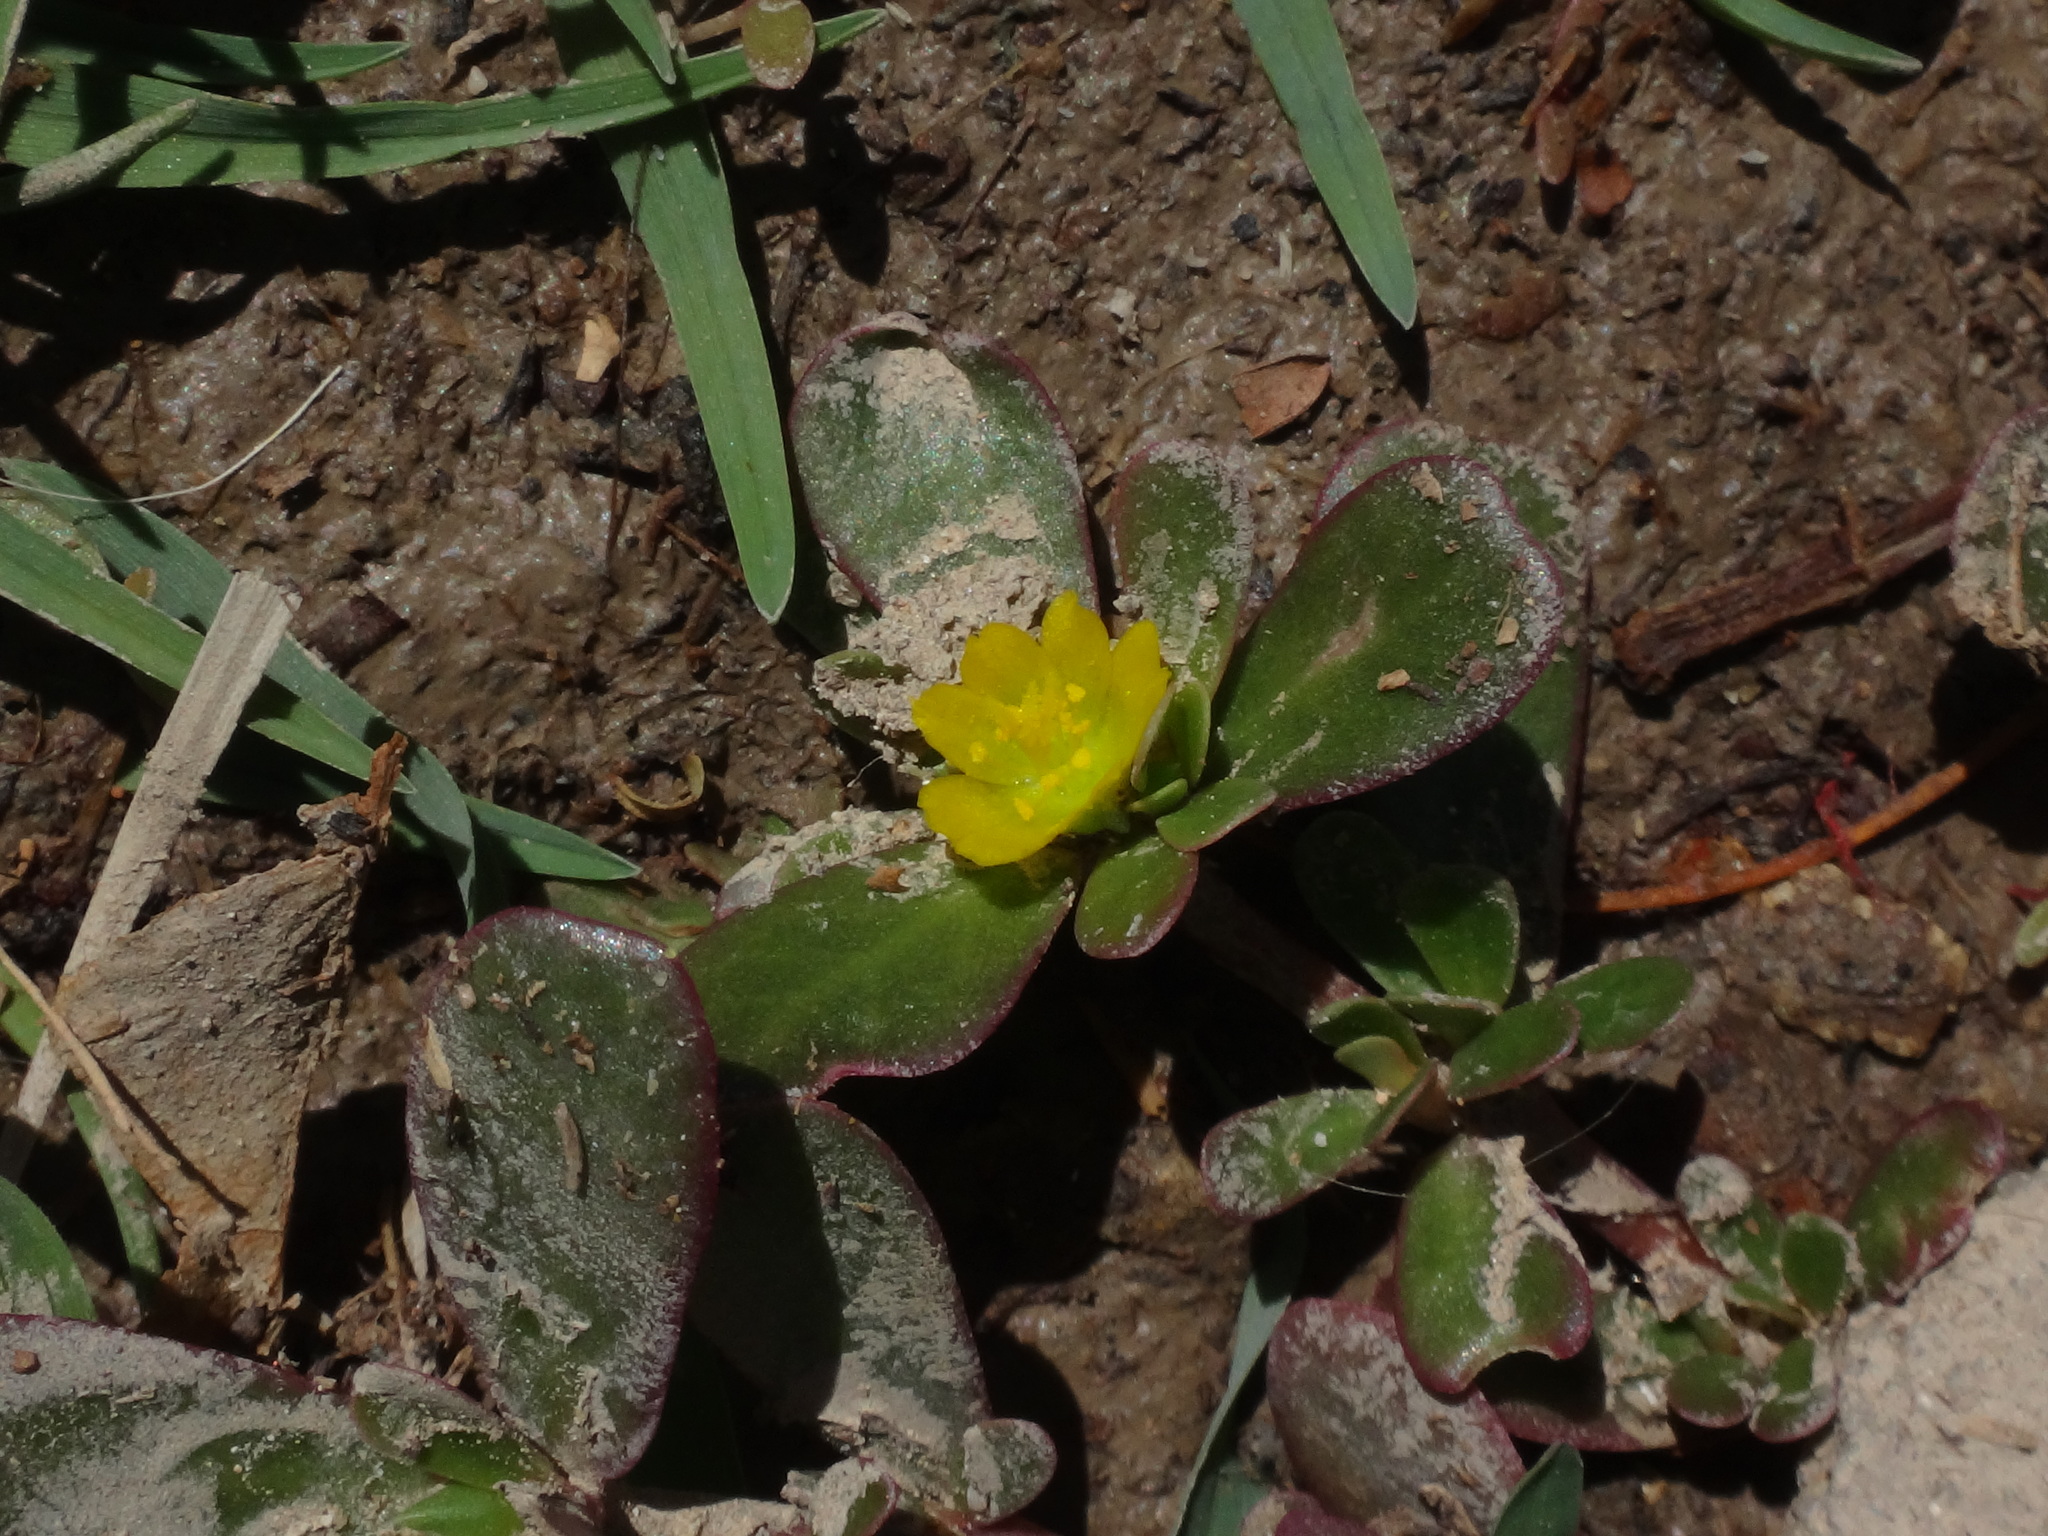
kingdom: Plantae
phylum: Tracheophyta
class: Magnoliopsida
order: Caryophyllales
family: Portulacaceae
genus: Portulaca
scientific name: Portulaca oleracea
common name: Common purslane
